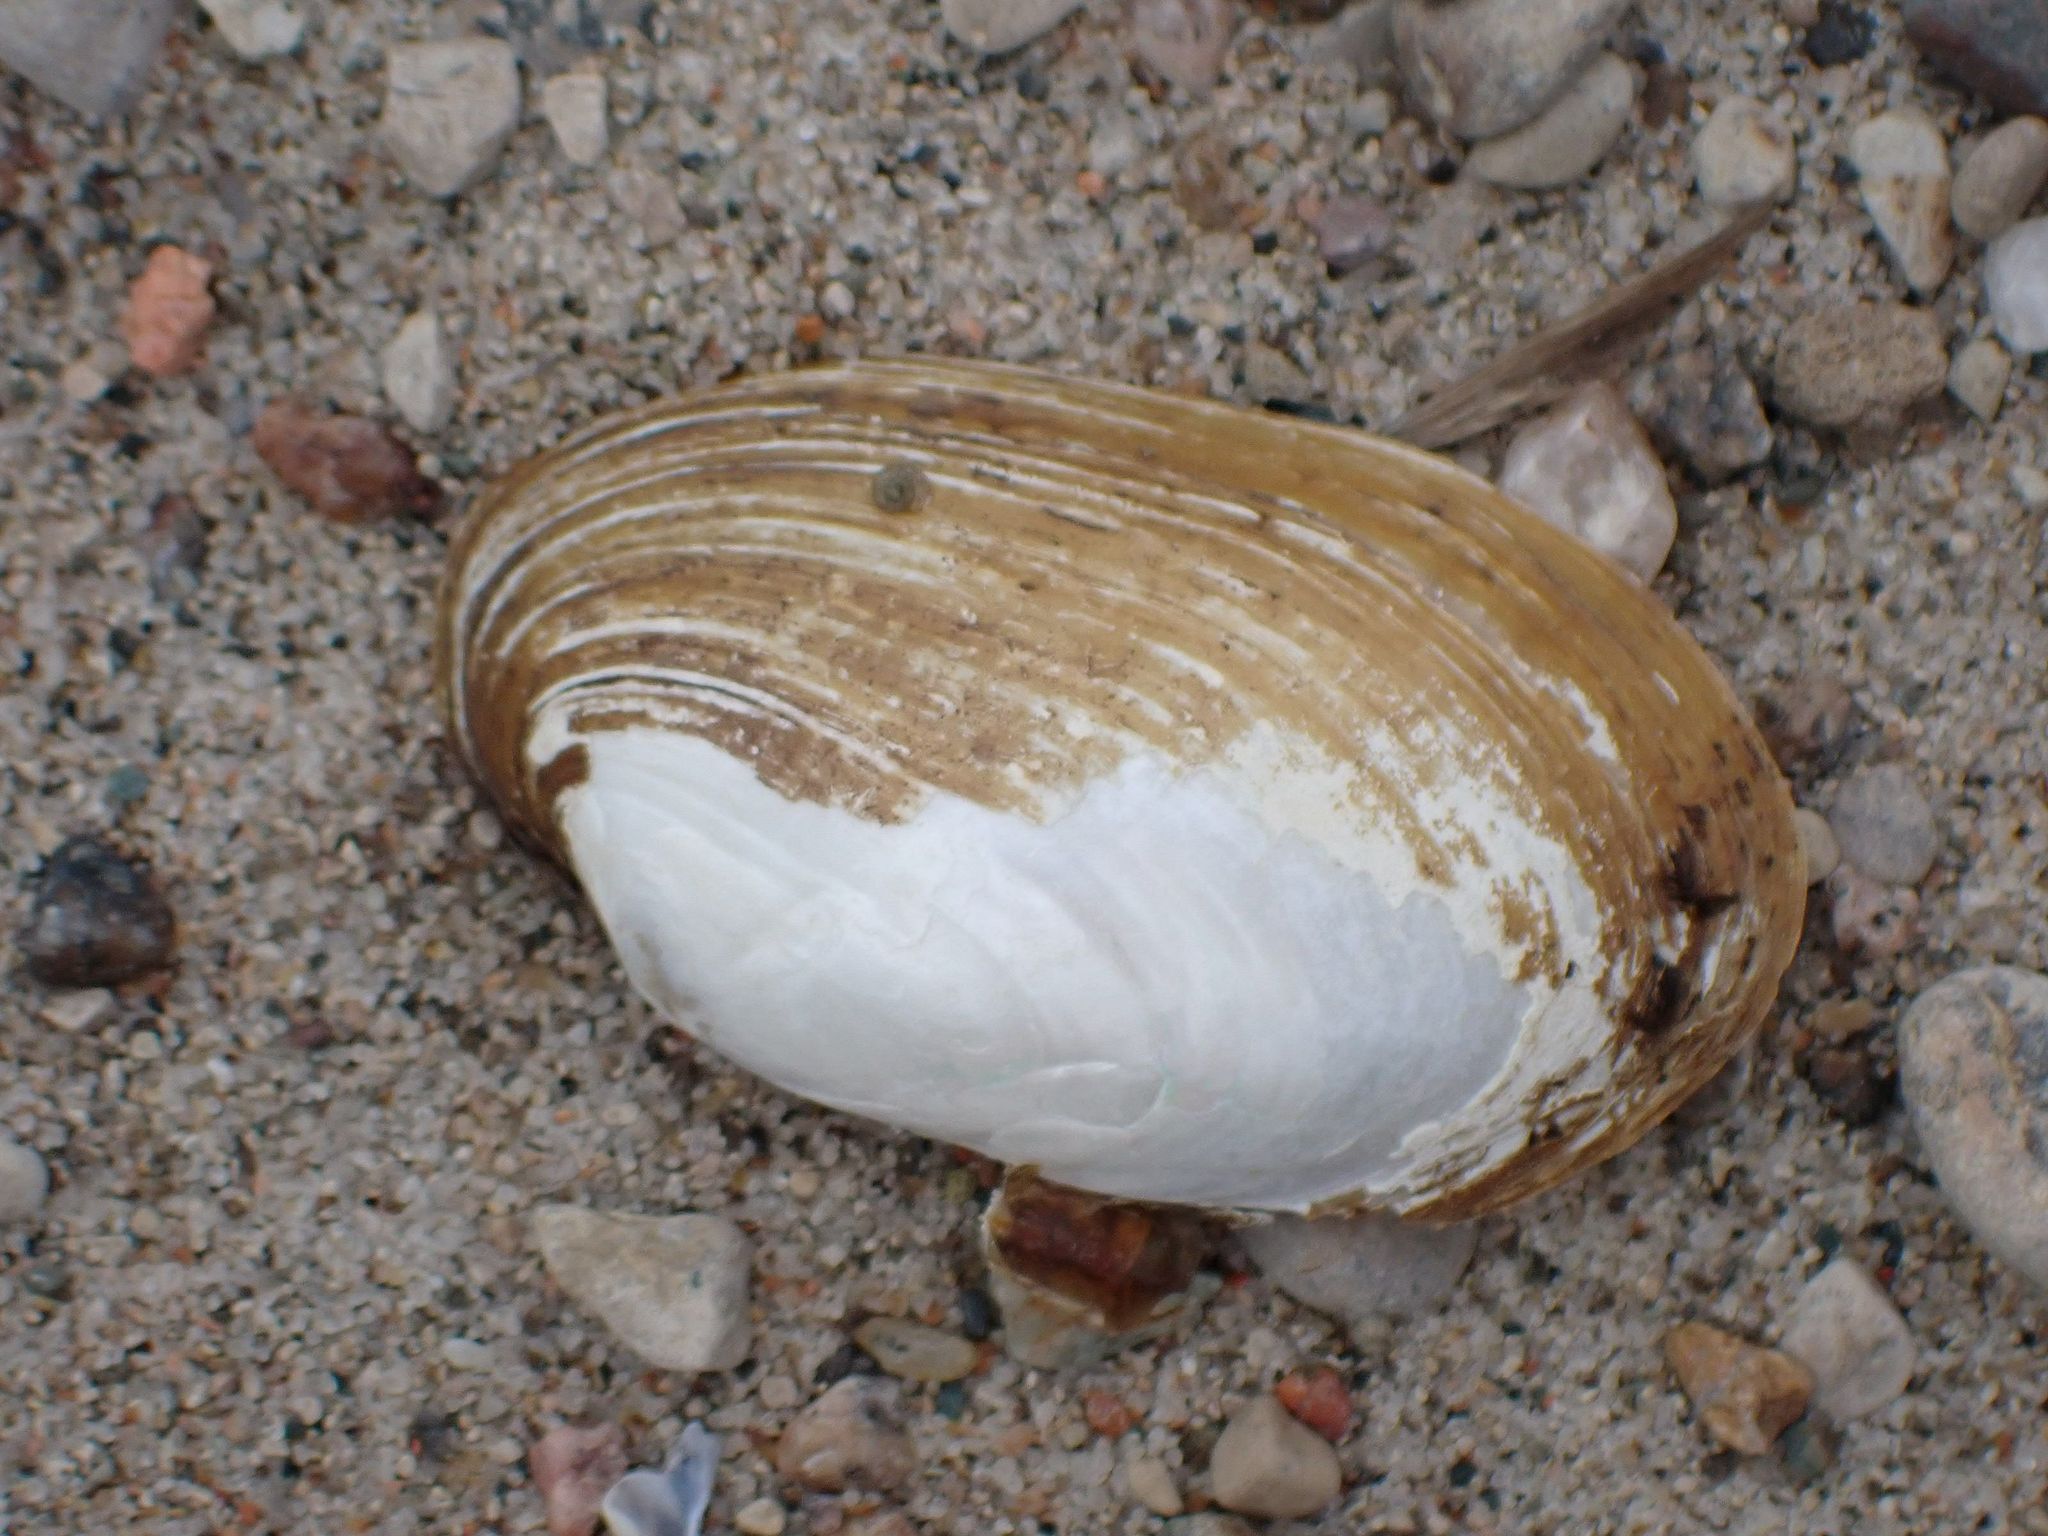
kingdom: Animalia
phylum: Mollusca
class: Bivalvia
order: Unionida
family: Unionidae
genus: Lampsilis
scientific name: Lampsilis siliquoidea
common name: Fatmucket
